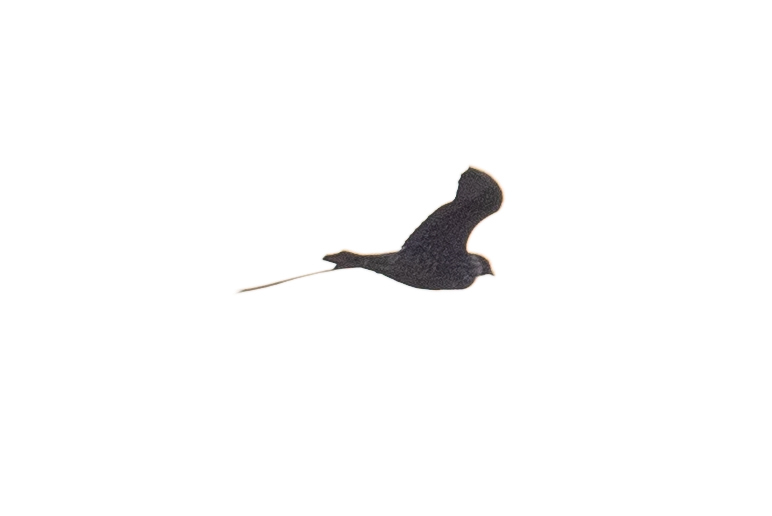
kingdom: Animalia
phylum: Chordata
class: Aves
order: Falconiformes
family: Falconidae
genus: Falco
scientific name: Falco peregrinus
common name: Peregrine falcon
